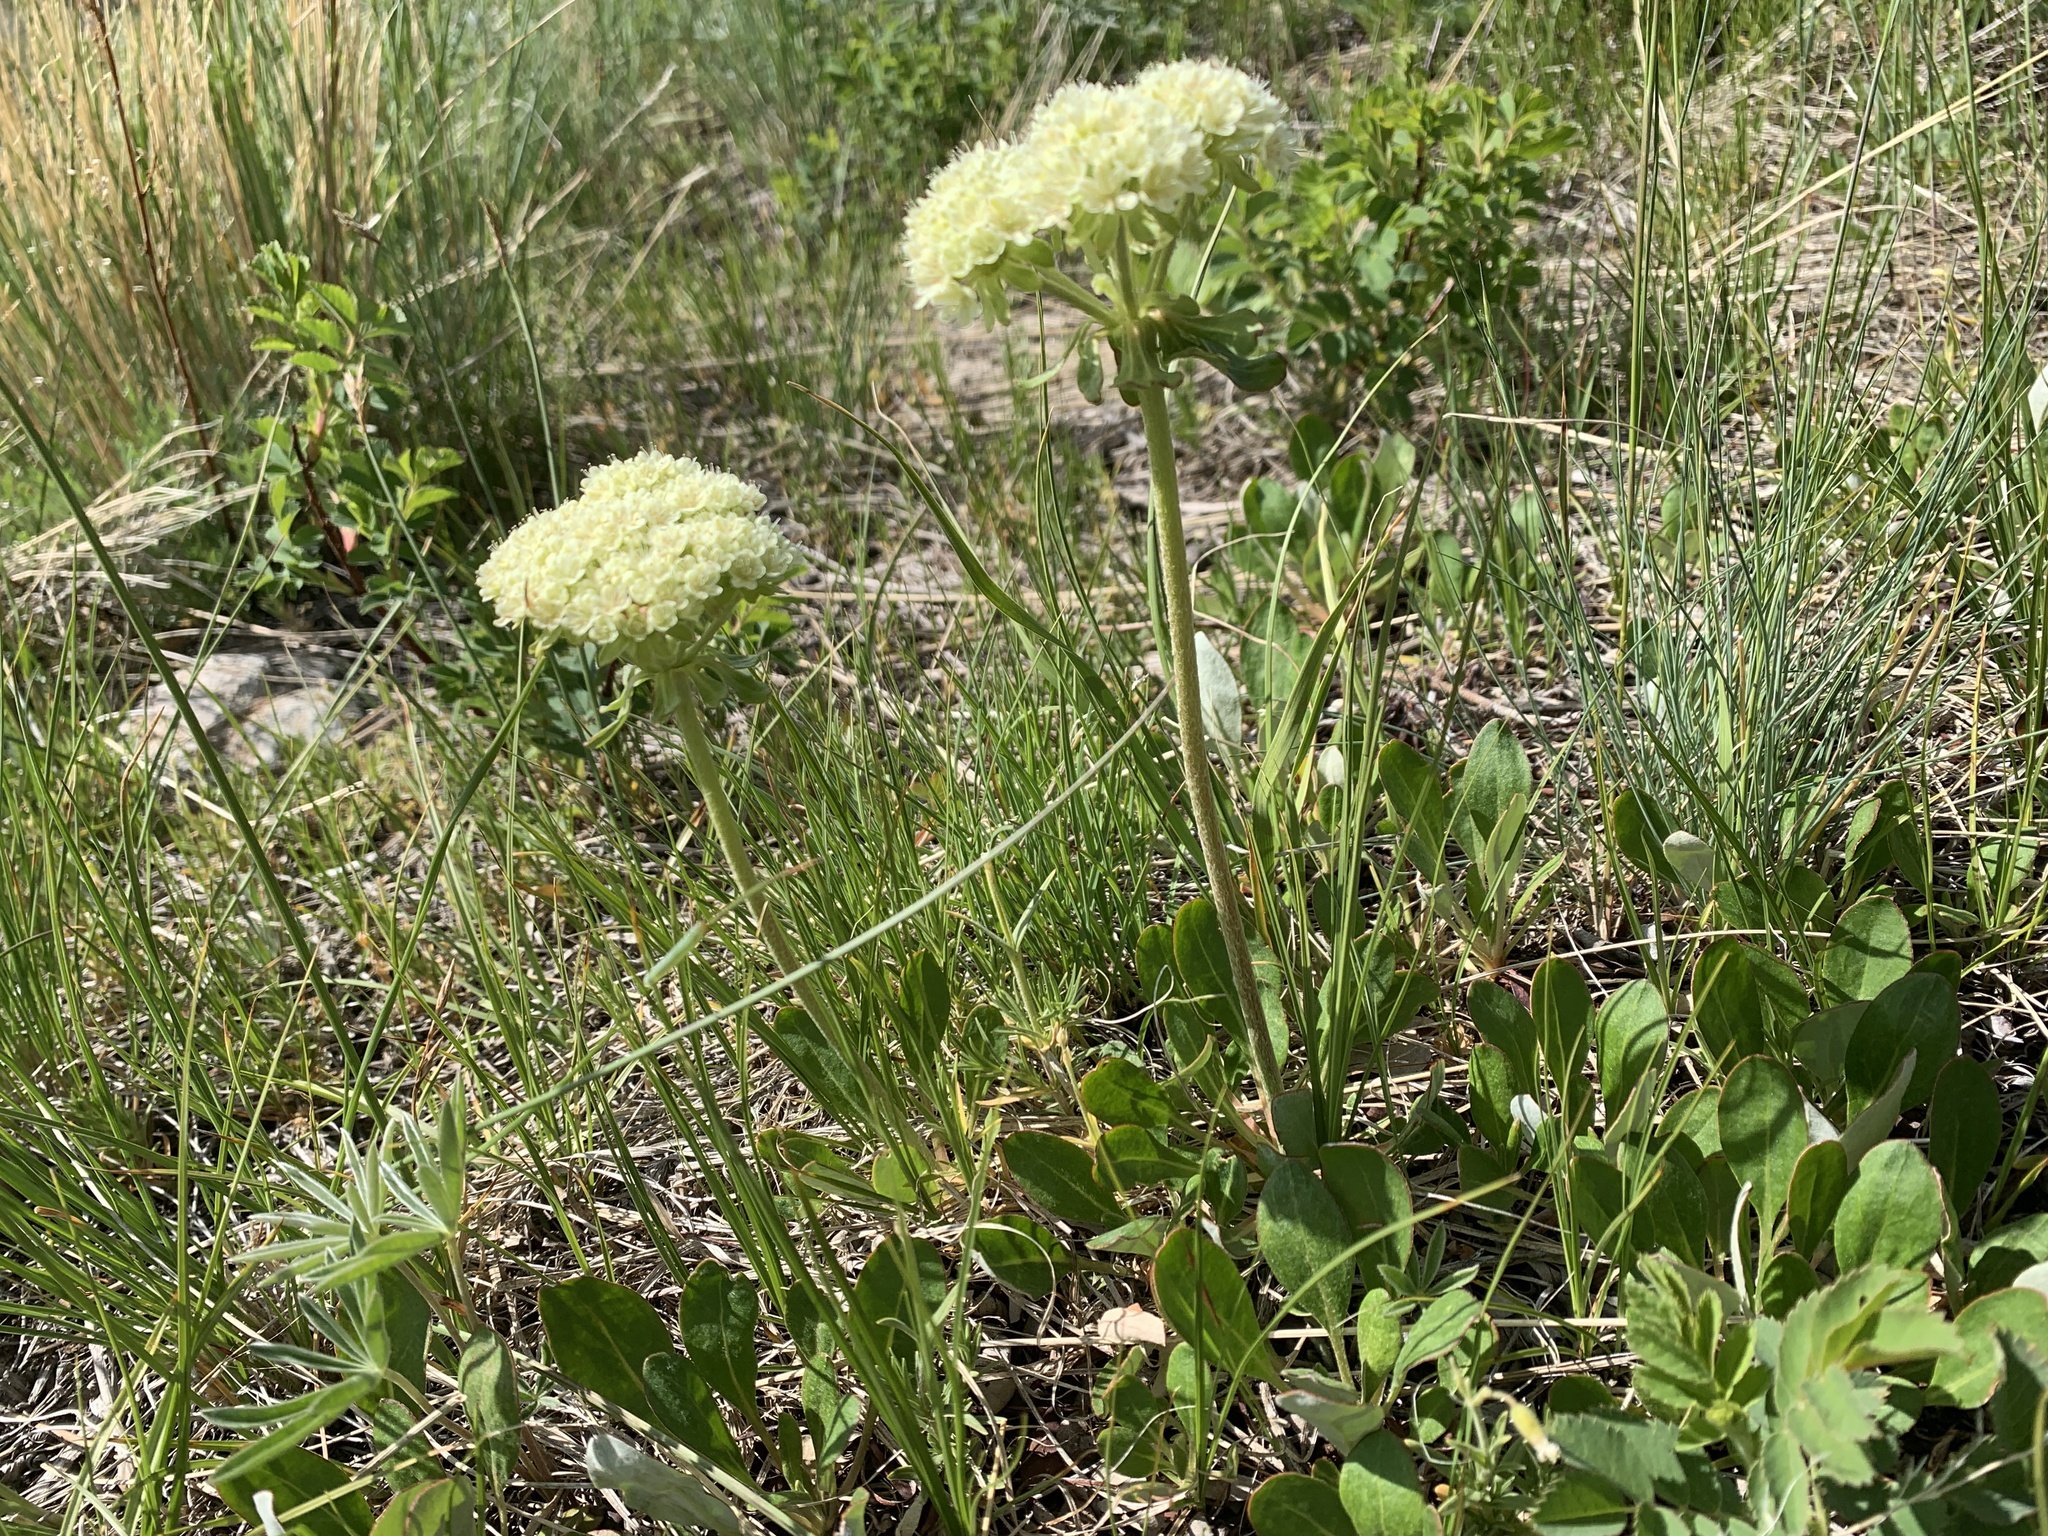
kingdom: Plantae
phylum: Tracheophyta
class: Magnoliopsida
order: Caryophyllales
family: Polygonaceae
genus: Eriogonum
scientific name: Eriogonum umbellatum
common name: Sulfur-buckwheat
